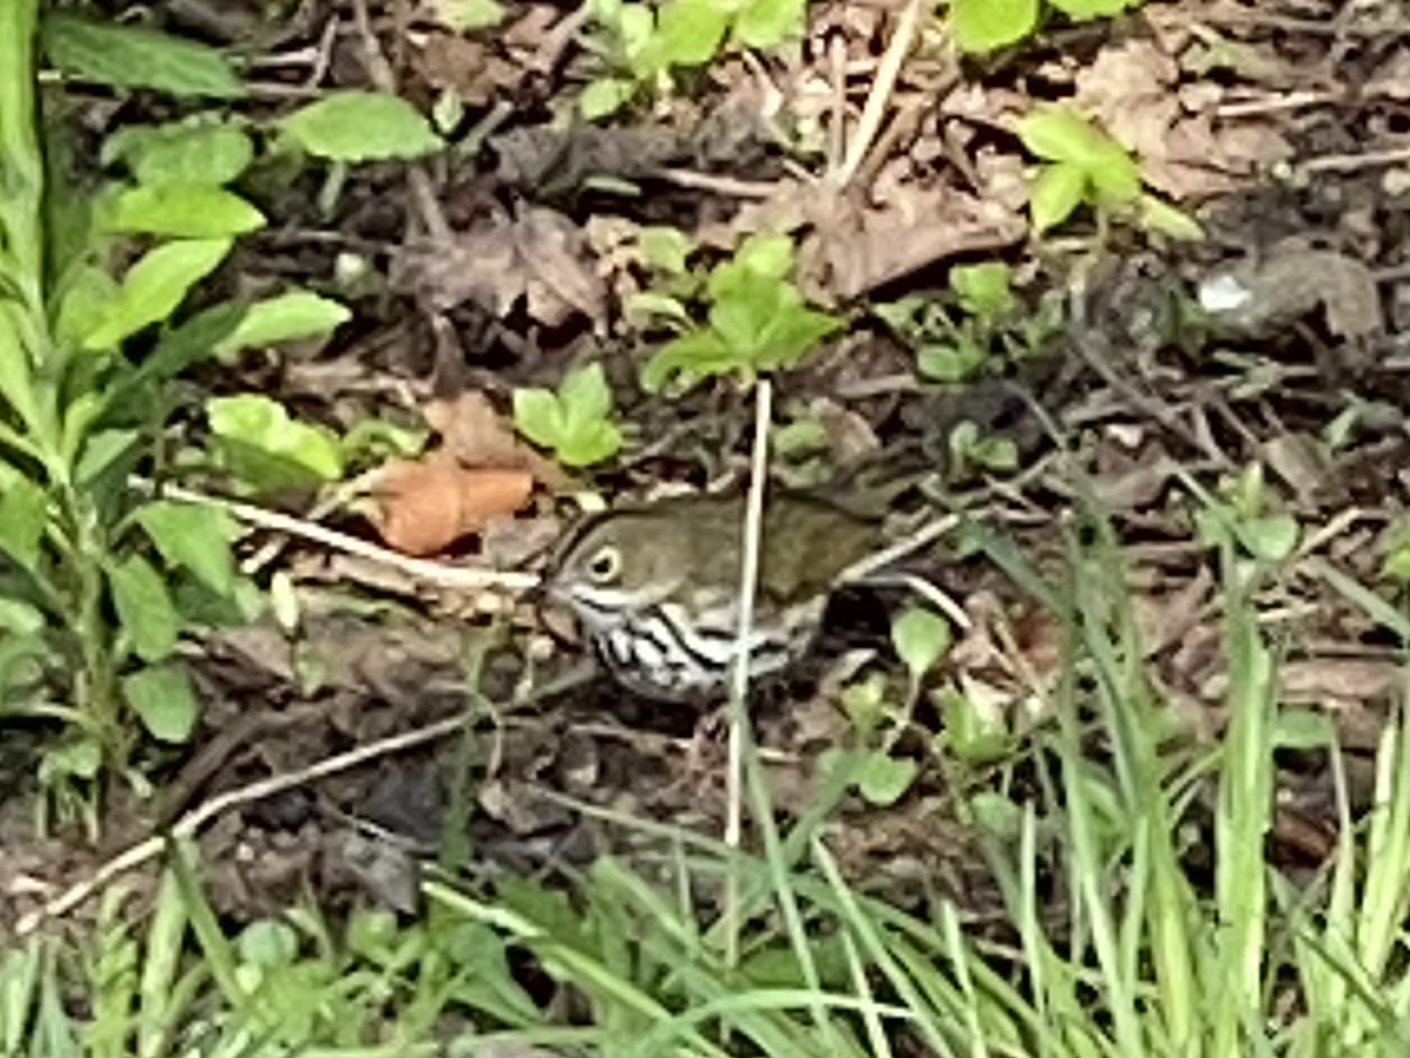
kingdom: Animalia
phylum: Chordata
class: Aves
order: Passeriformes
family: Parulidae
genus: Seiurus
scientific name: Seiurus aurocapilla
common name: Ovenbird
